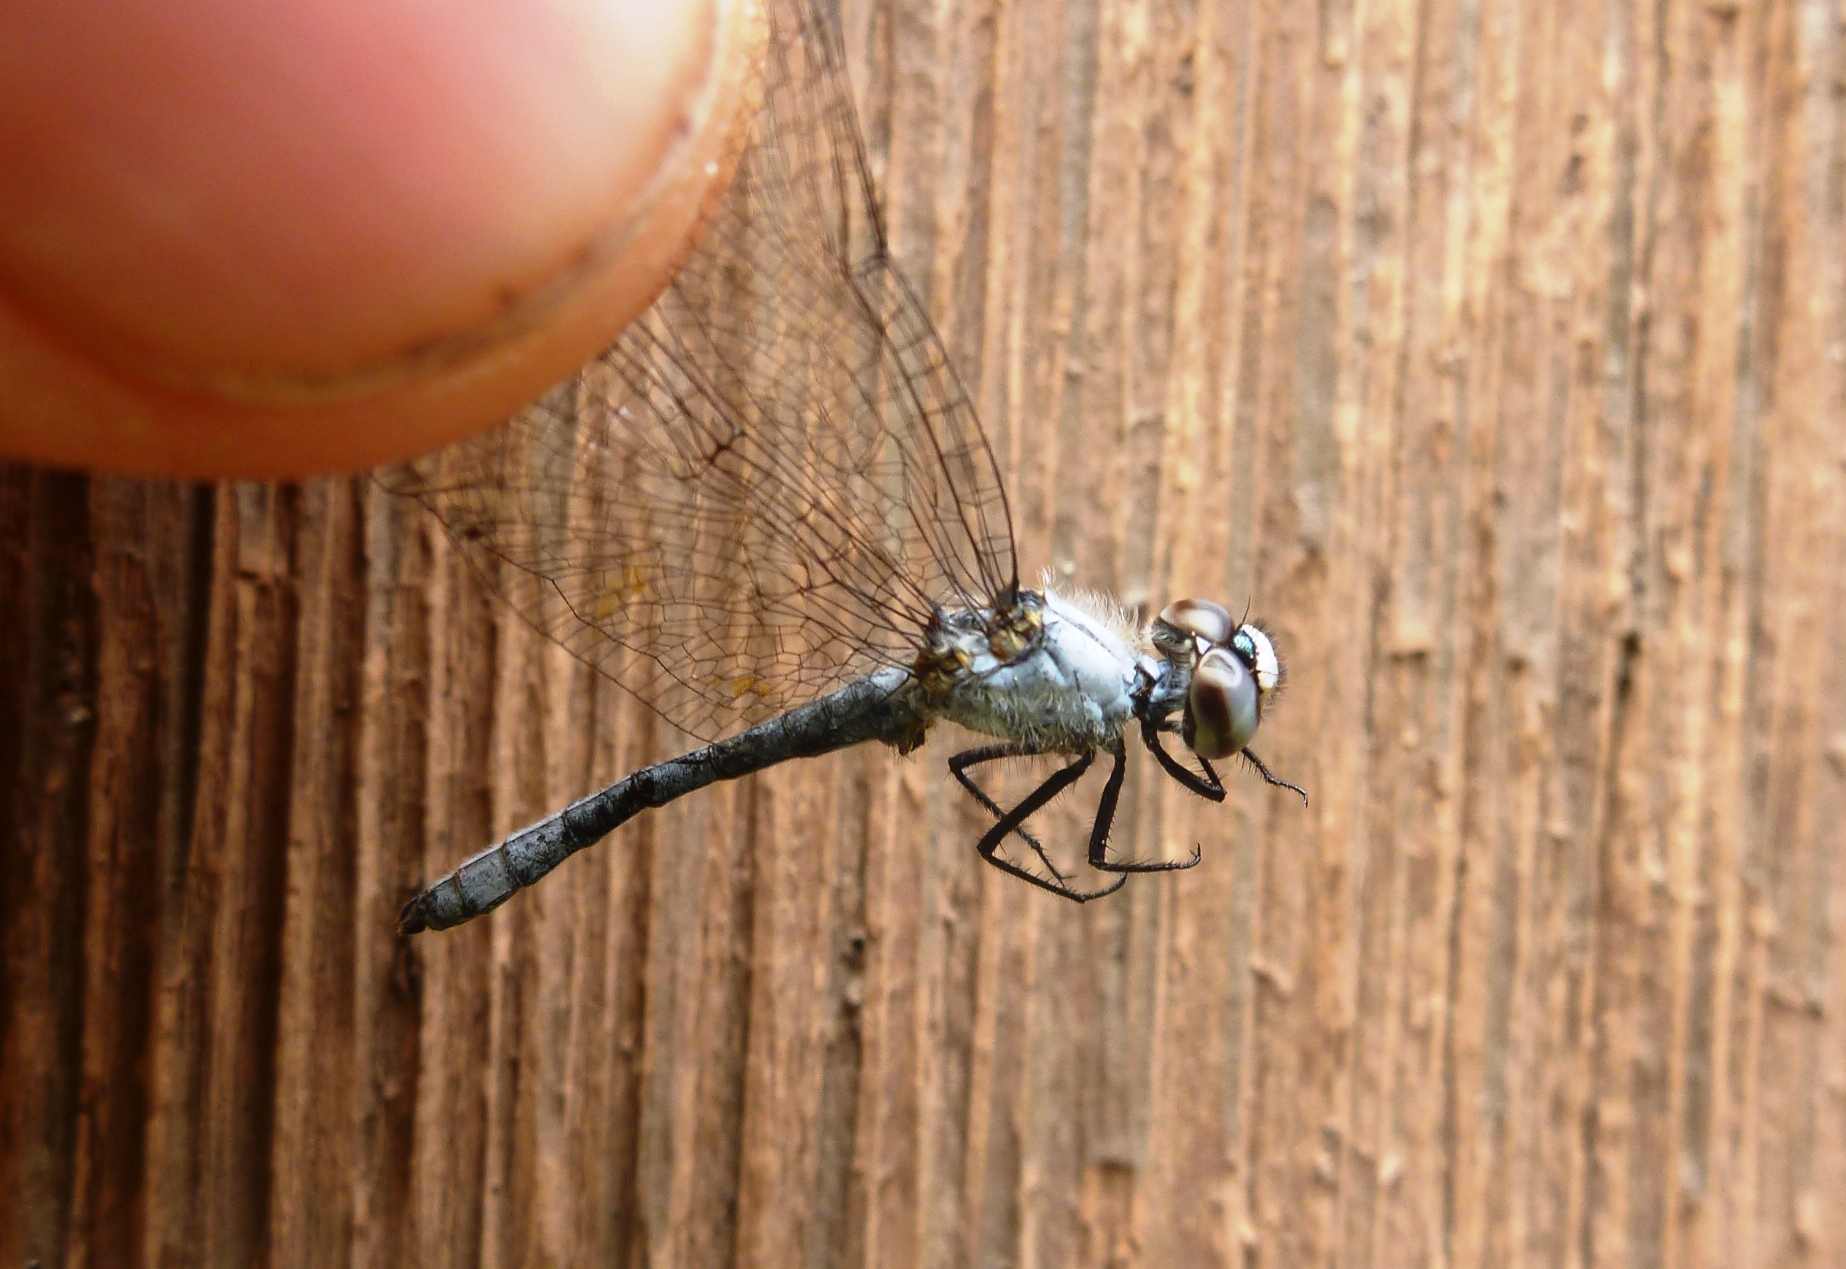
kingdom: Animalia
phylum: Arthropoda
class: Insecta
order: Odonata
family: Libellulidae
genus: Nannothemis
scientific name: Nannothemis bella
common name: Elfin skimmer
